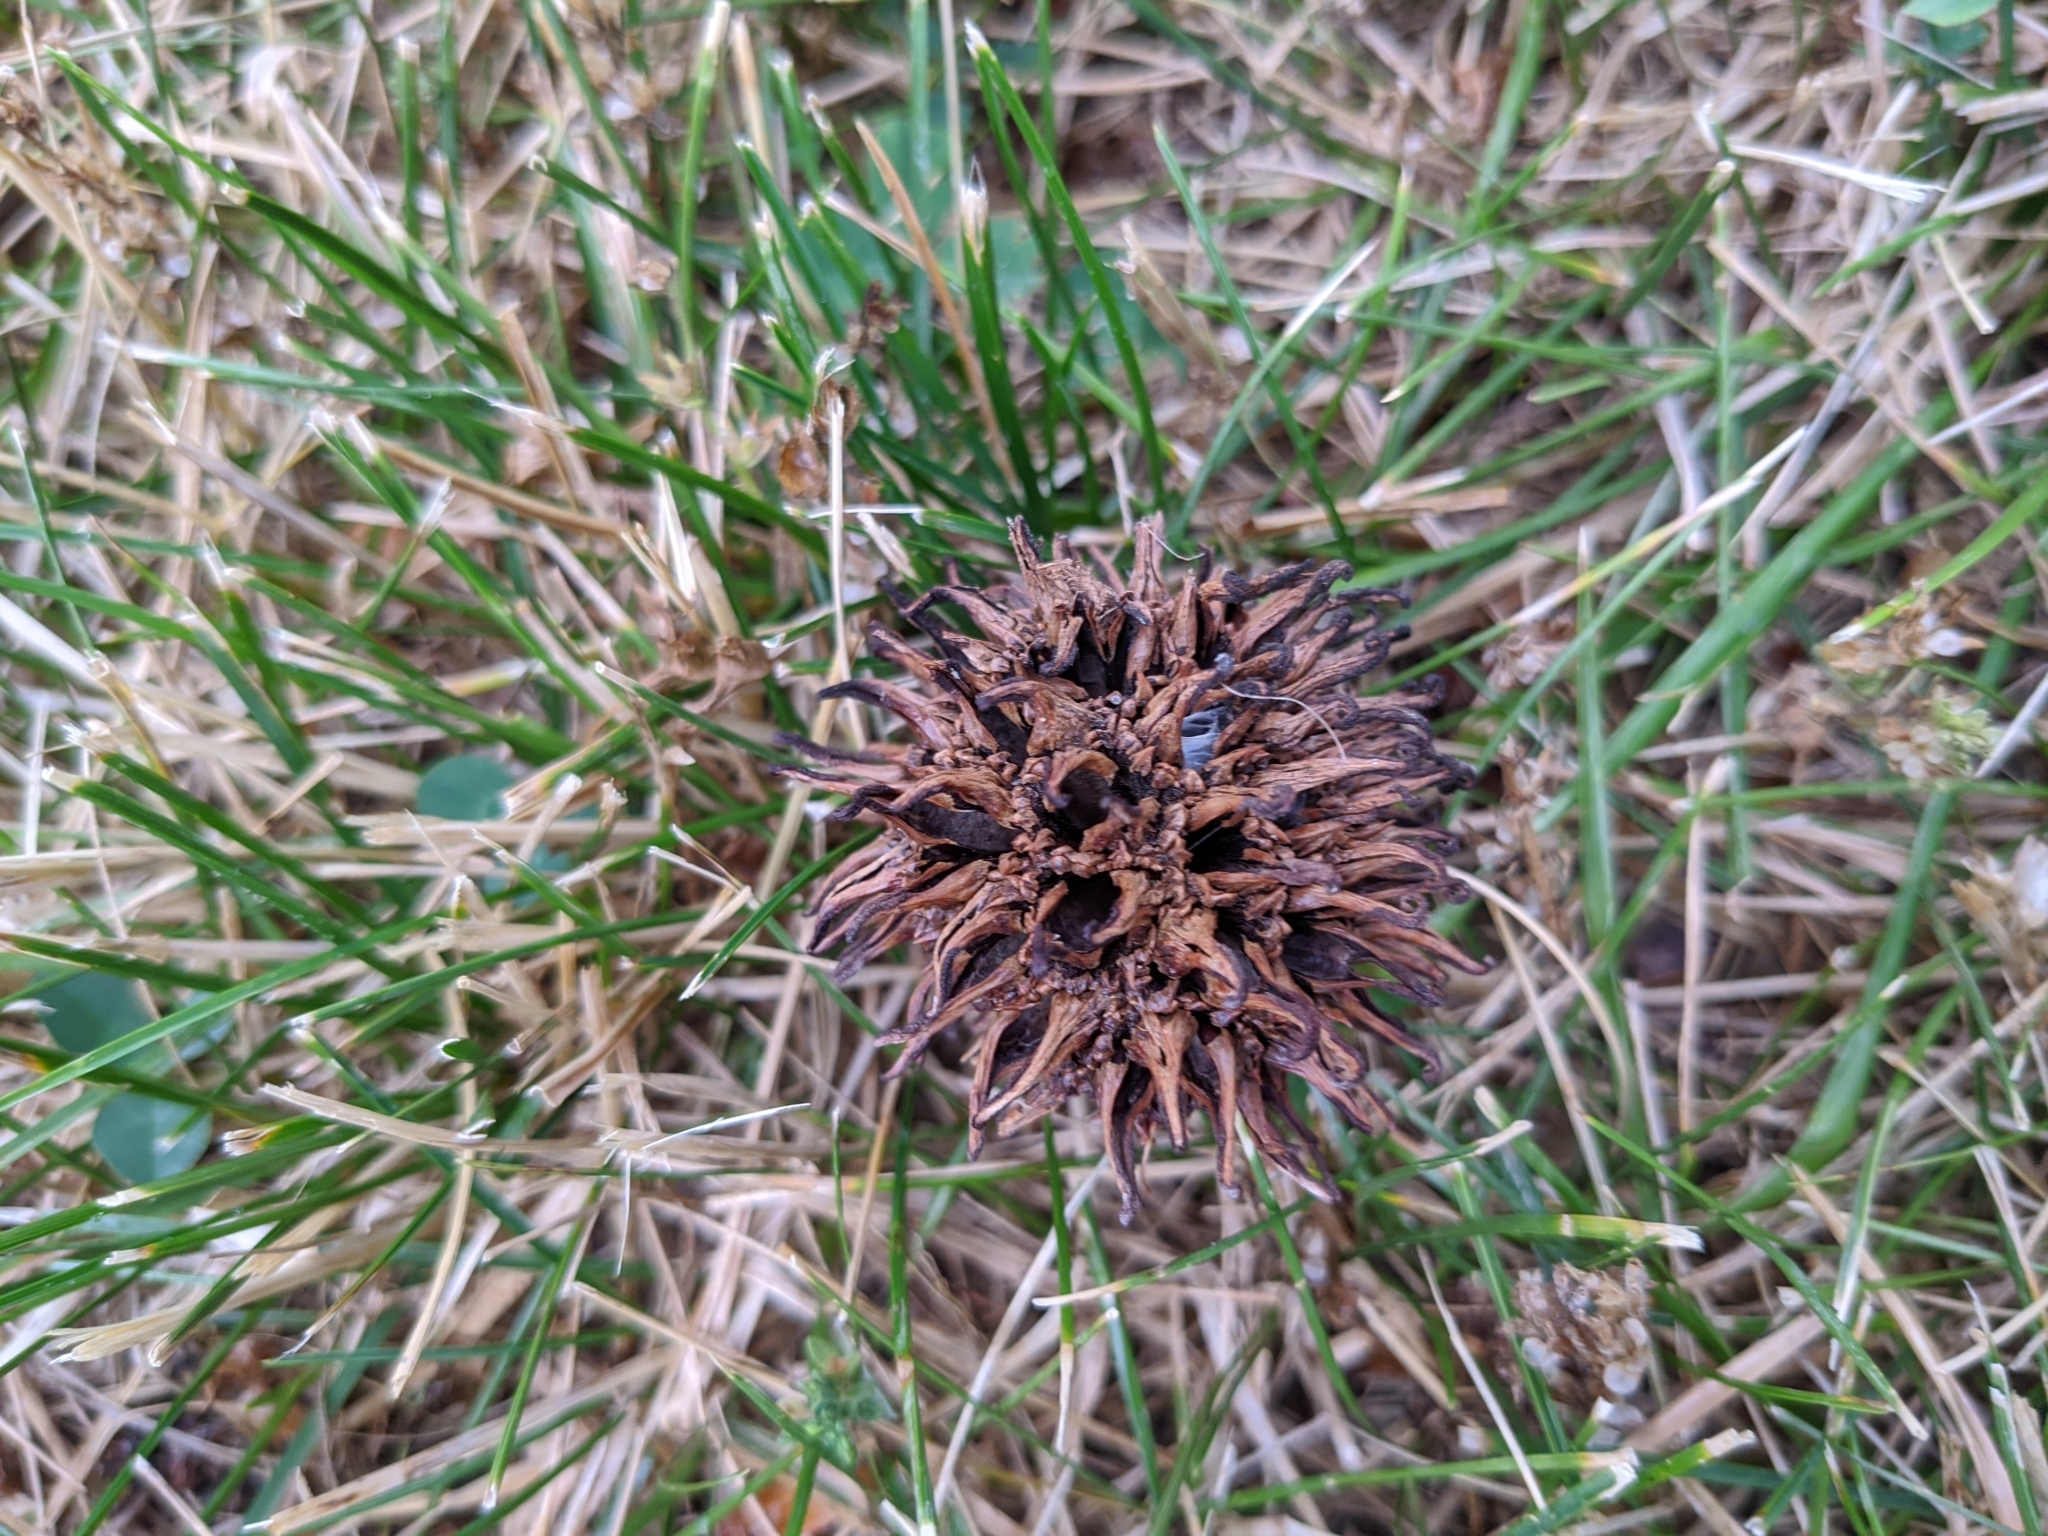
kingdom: Plantae
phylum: Tracheophyta
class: Magnoliopsida
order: Saxifragales
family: Altingiaceae
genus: Liquidambar
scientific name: Liquidambar styraciflua
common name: Sweet gum
